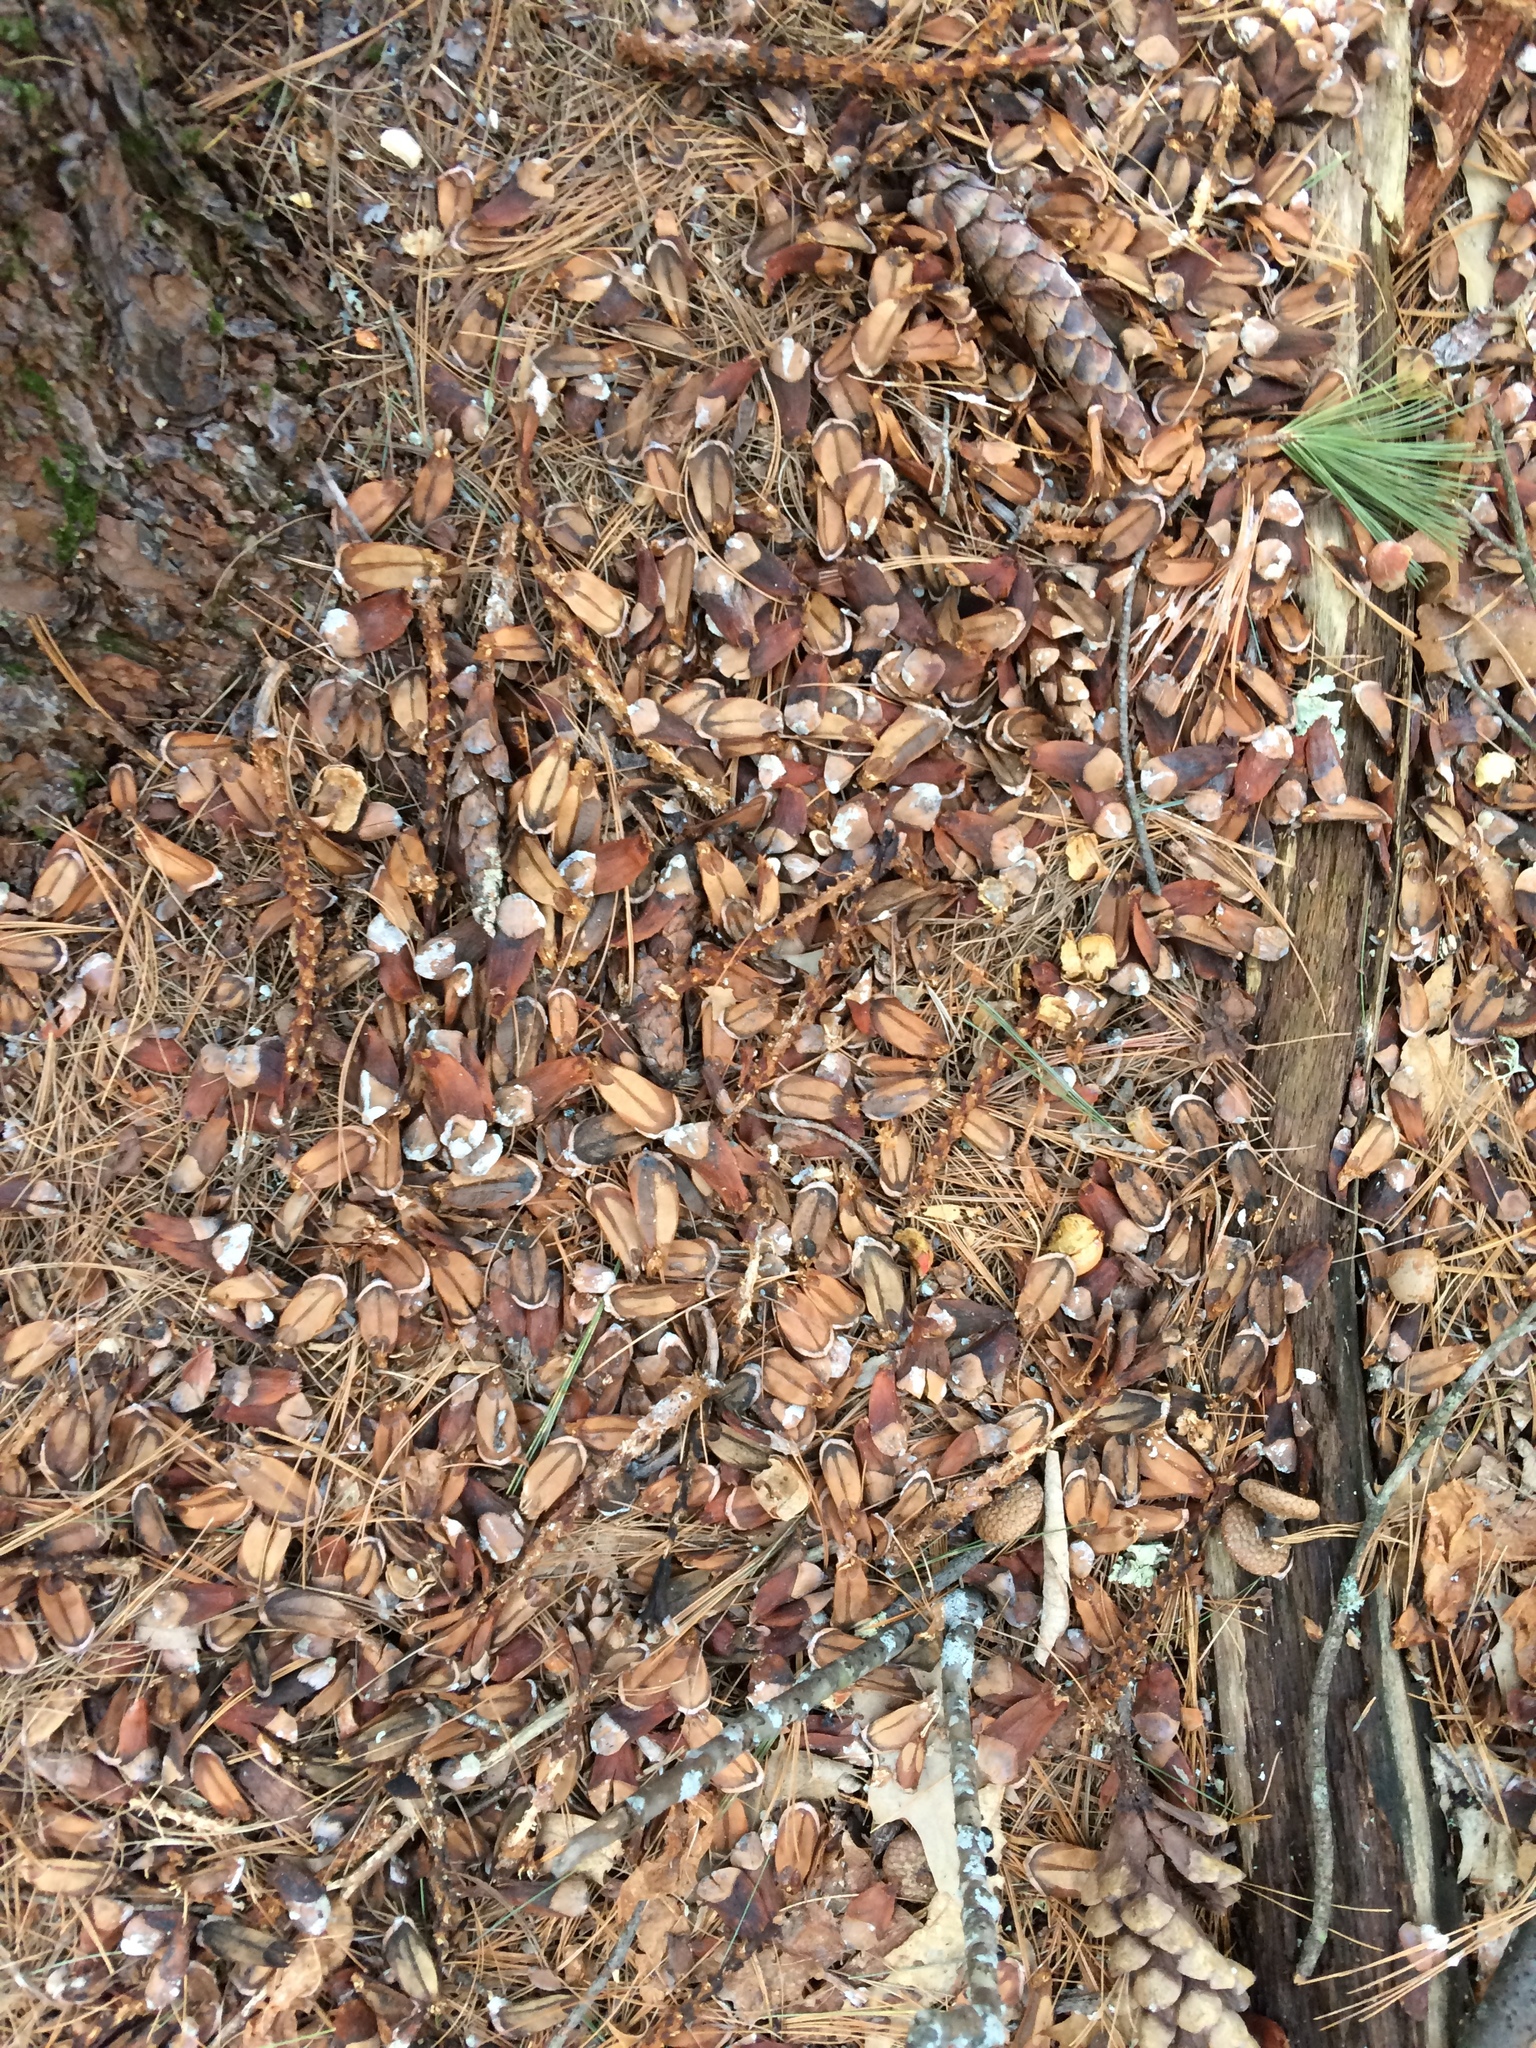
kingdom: Animalia
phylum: Chordata
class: Mammalia
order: Rodentia
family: Sciuridae
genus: Tamiasciurus
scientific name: Tamiasciurus hudsonicus
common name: Red squirrel
